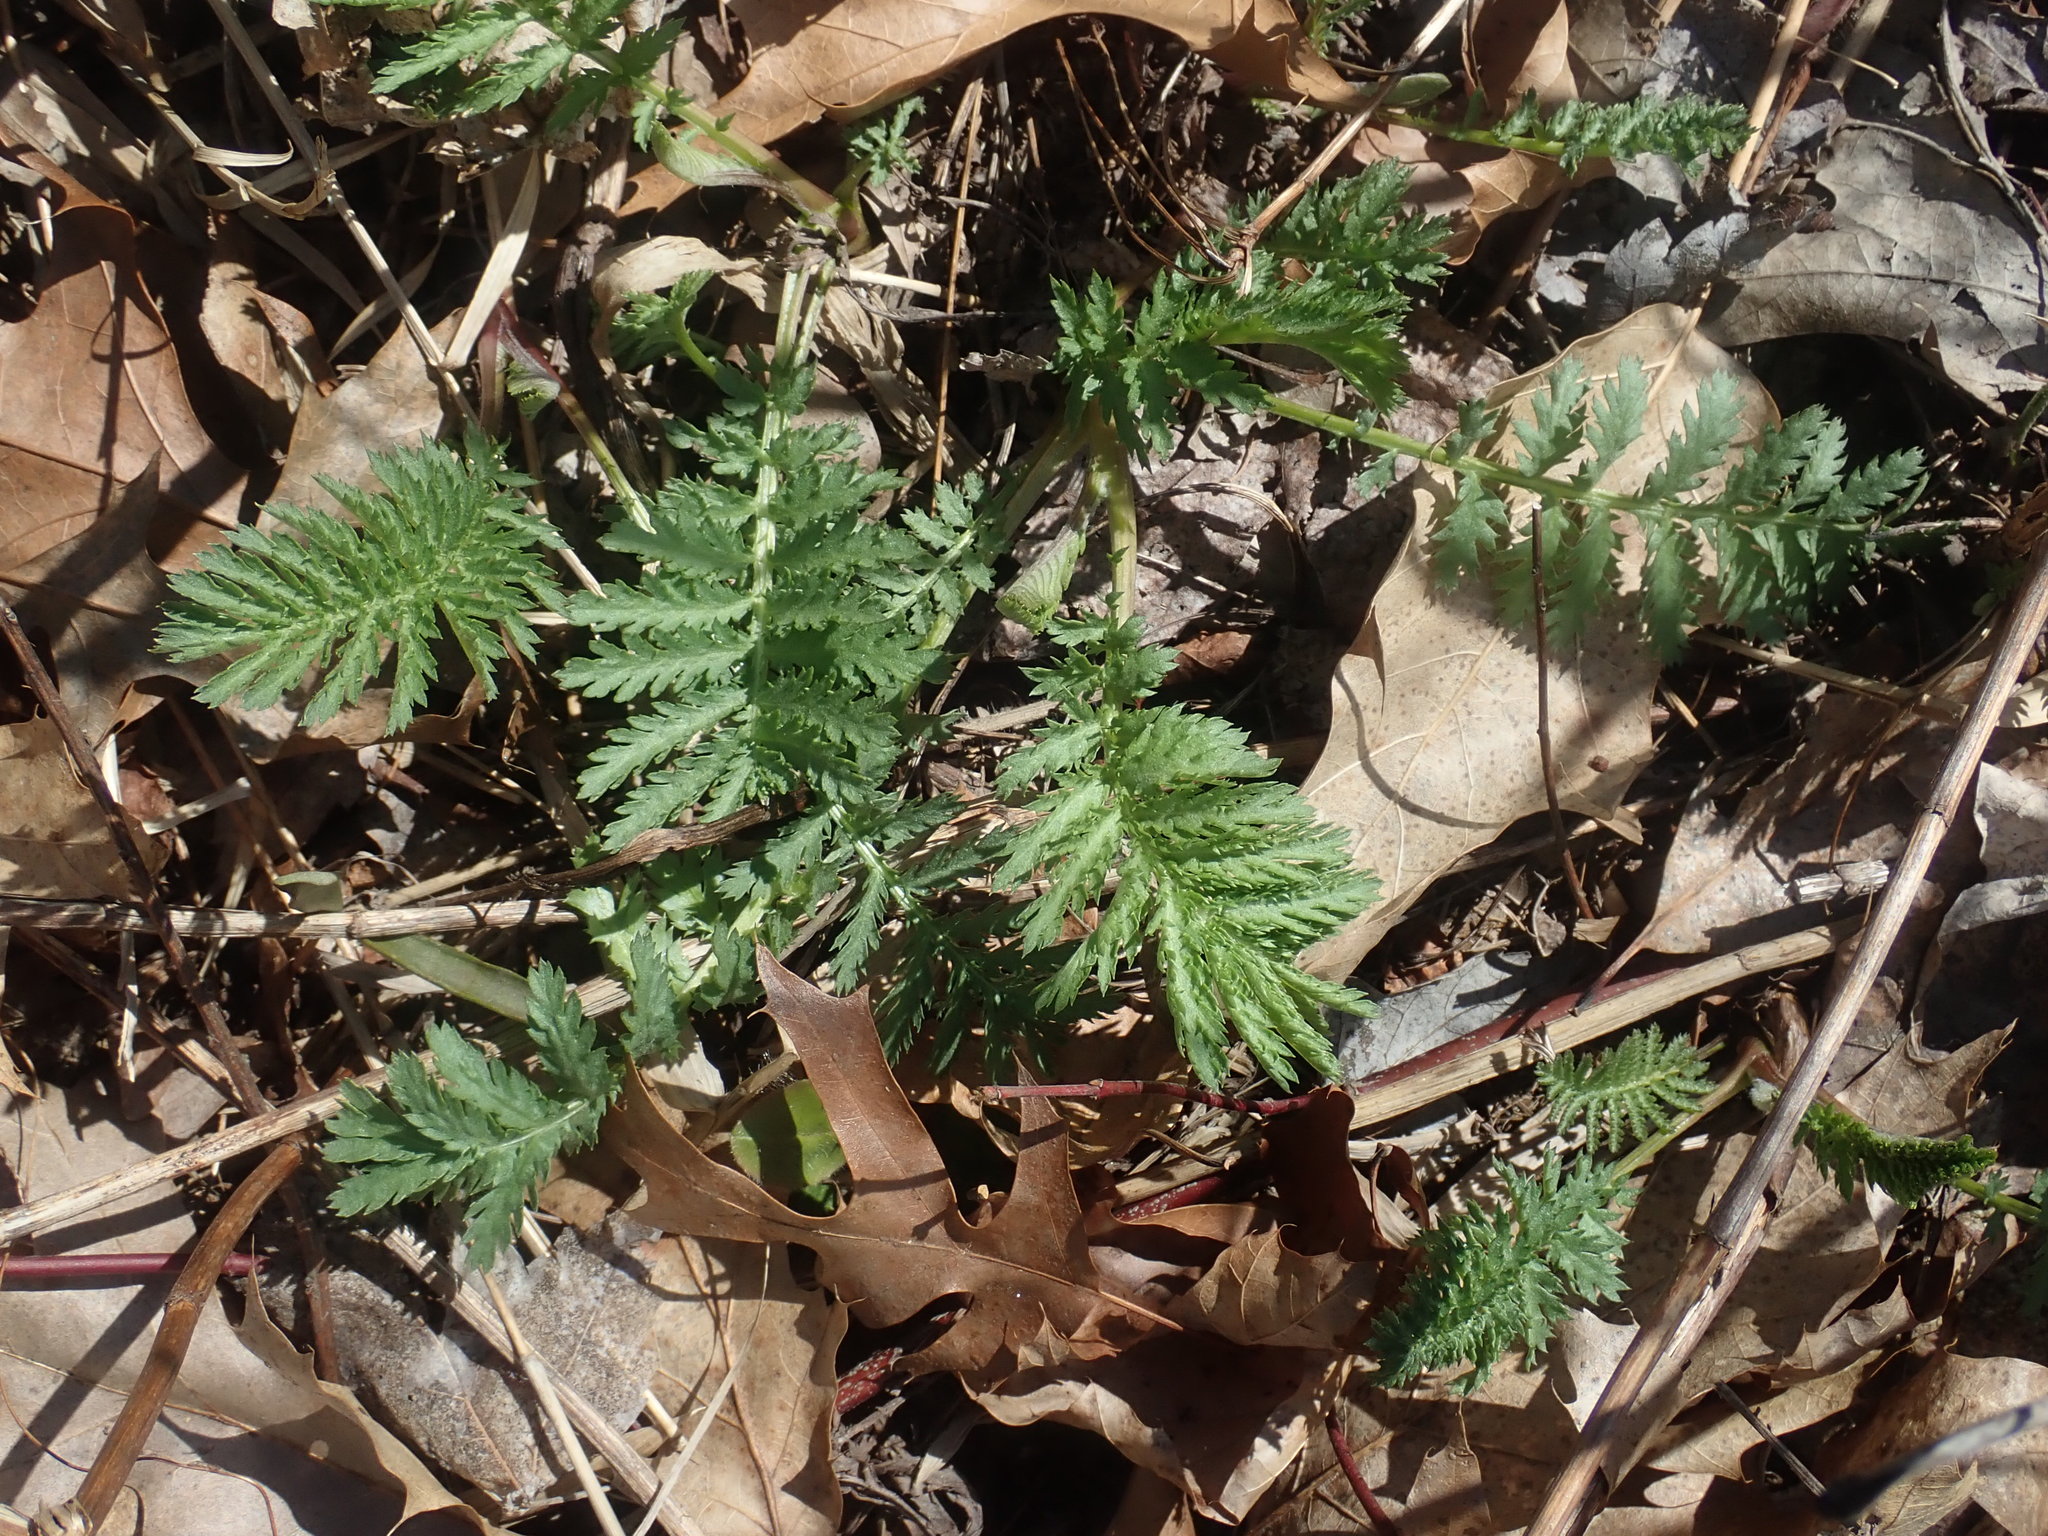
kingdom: Plantae
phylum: Tracheophyta
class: Magnoliopsida
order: Asterales
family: Asteraceae
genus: Tanacetum
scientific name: Tanacetum vulgare
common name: Common tansy
